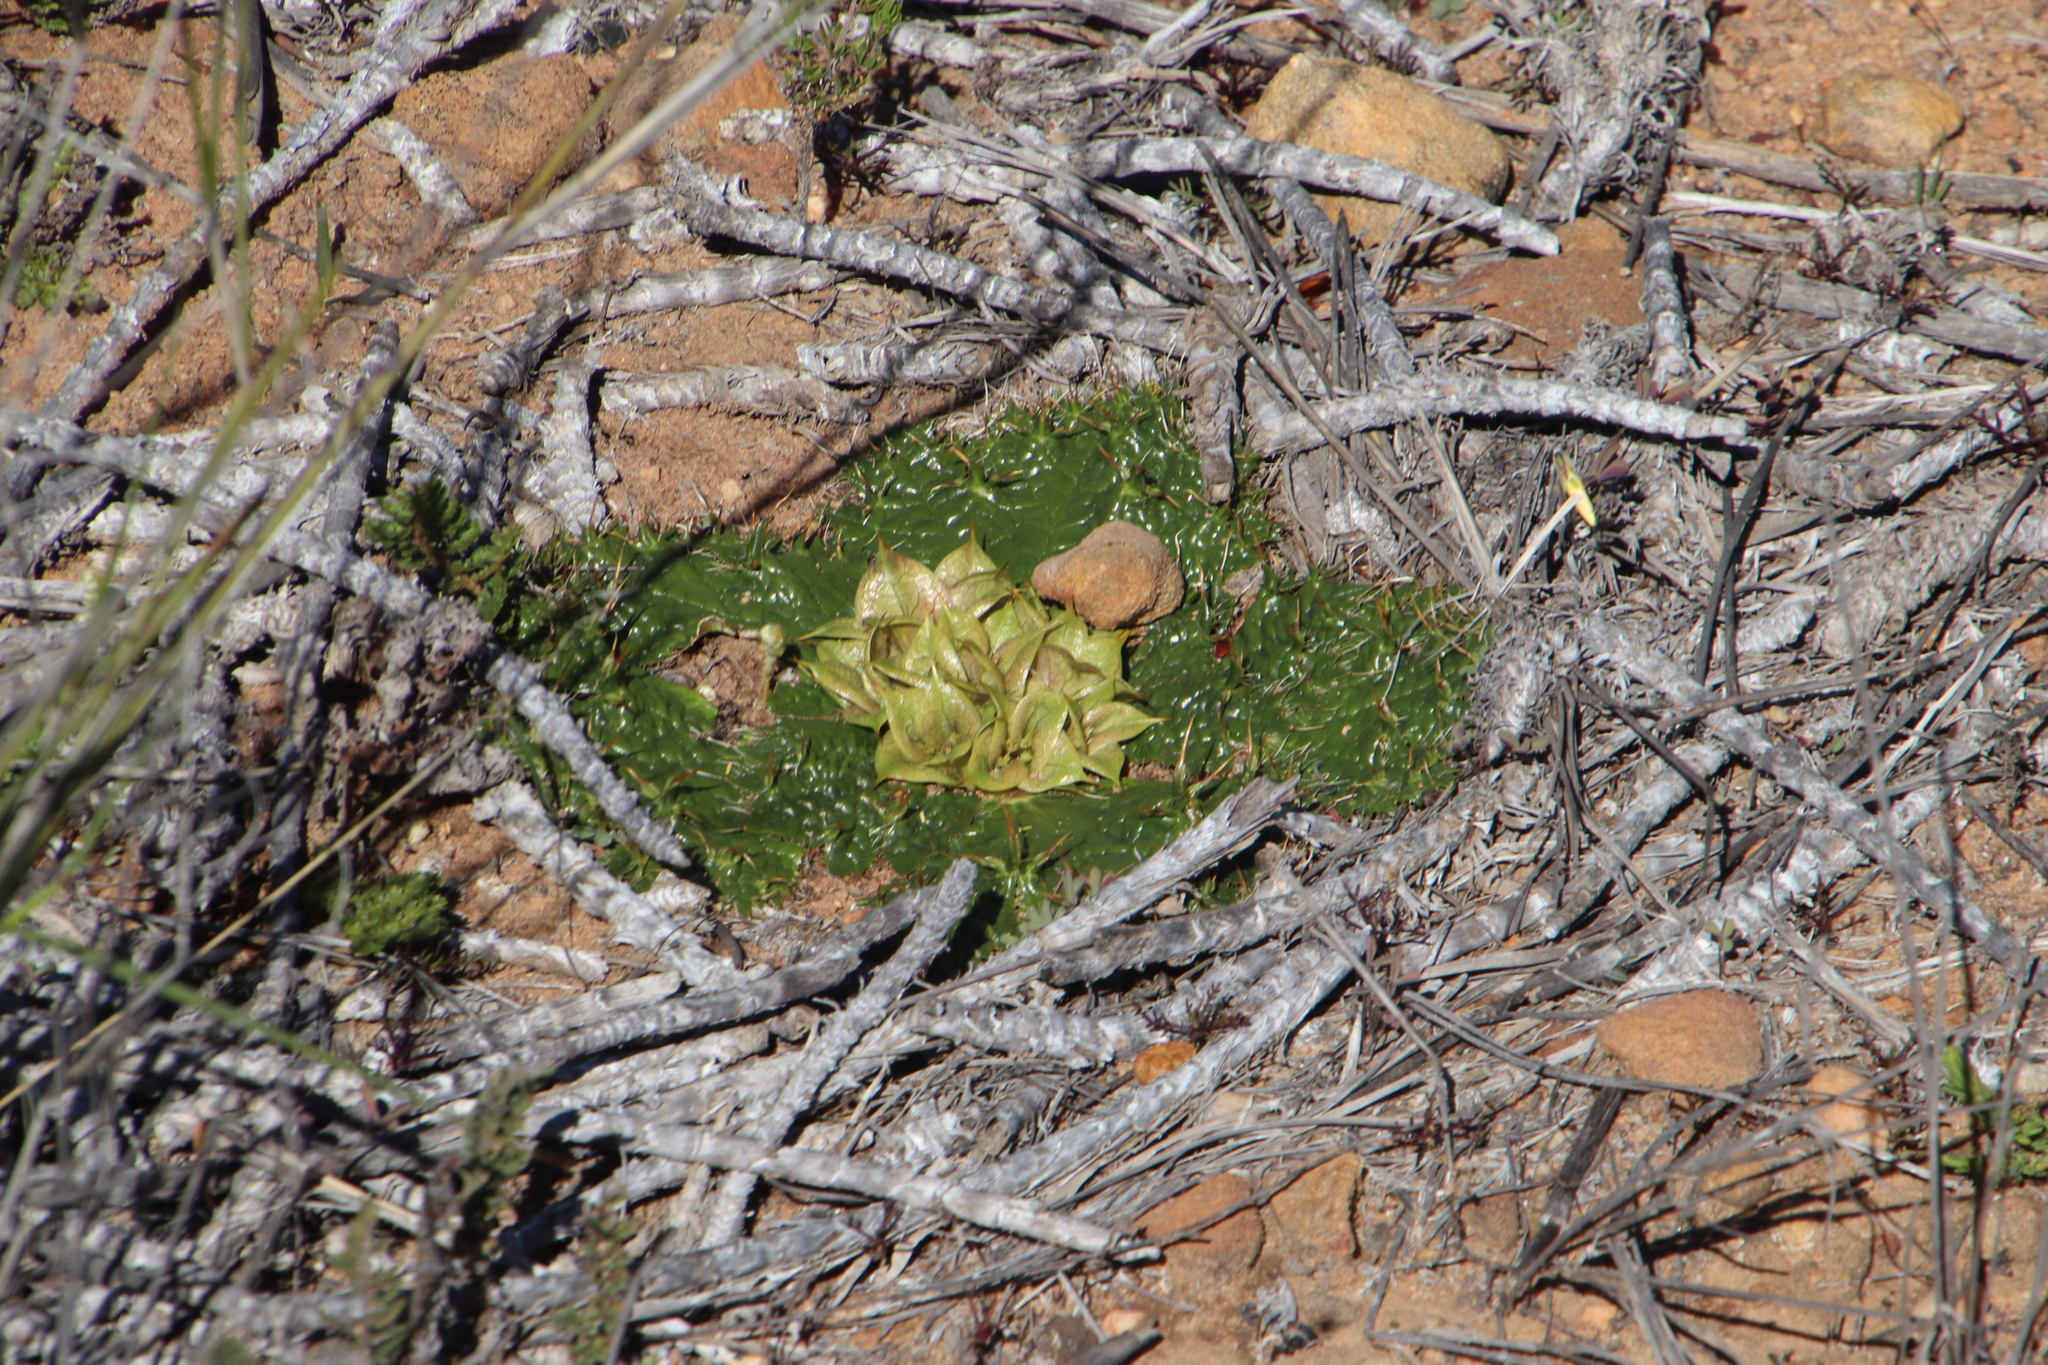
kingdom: Plantae
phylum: Tracheophyta
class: Magnoliopsida
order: Apiales
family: Apiaceae
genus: Arctopus
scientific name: Arctopus monacanthus
